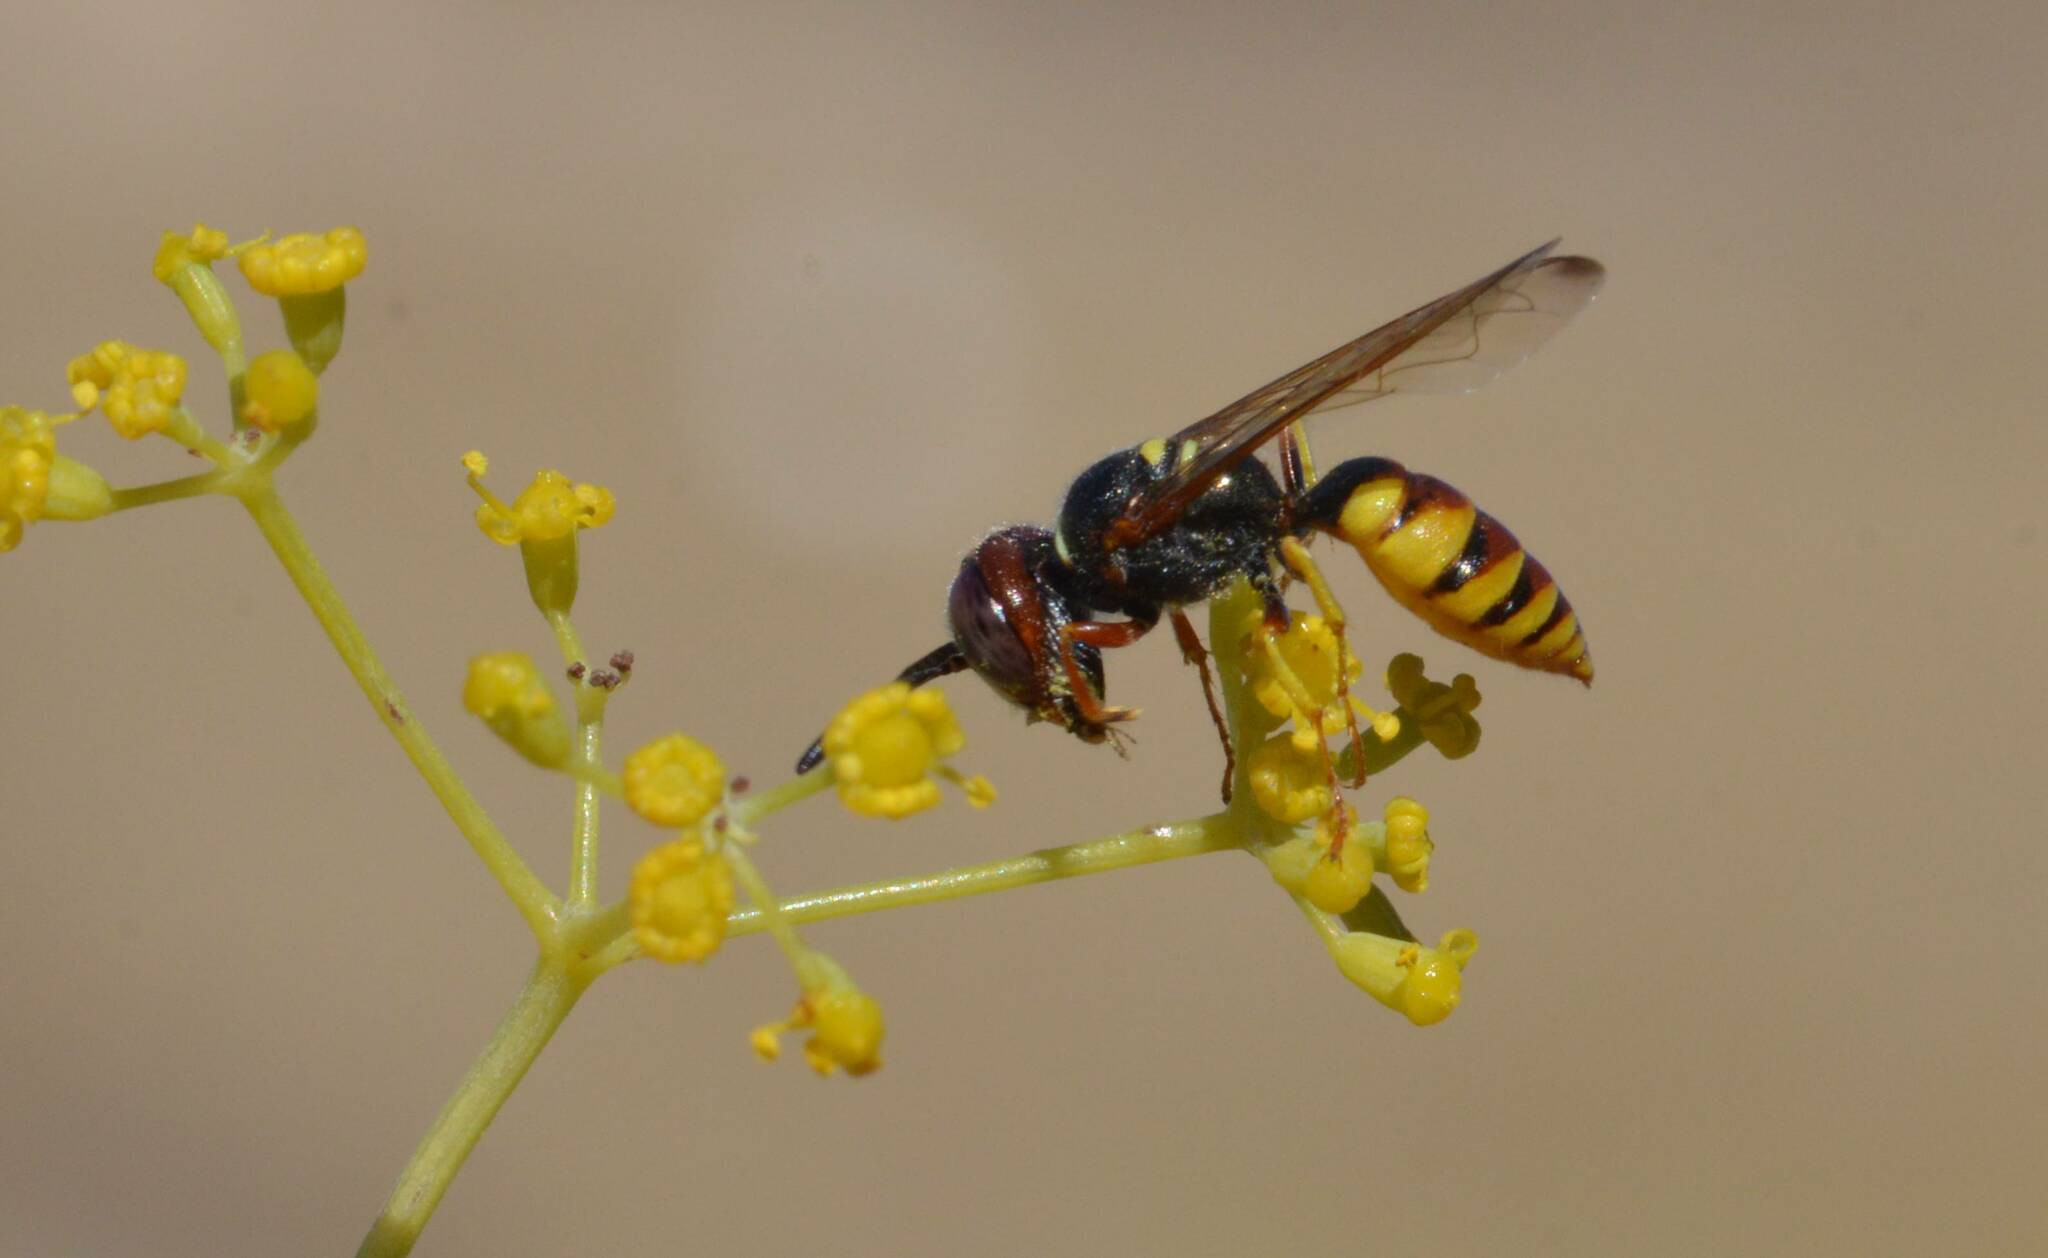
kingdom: Animalia
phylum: Arthropoda
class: Insecta
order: Hymenoptera
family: Crabronidae
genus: Philanthus
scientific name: Philanthus triangulum
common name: Bee wolf
